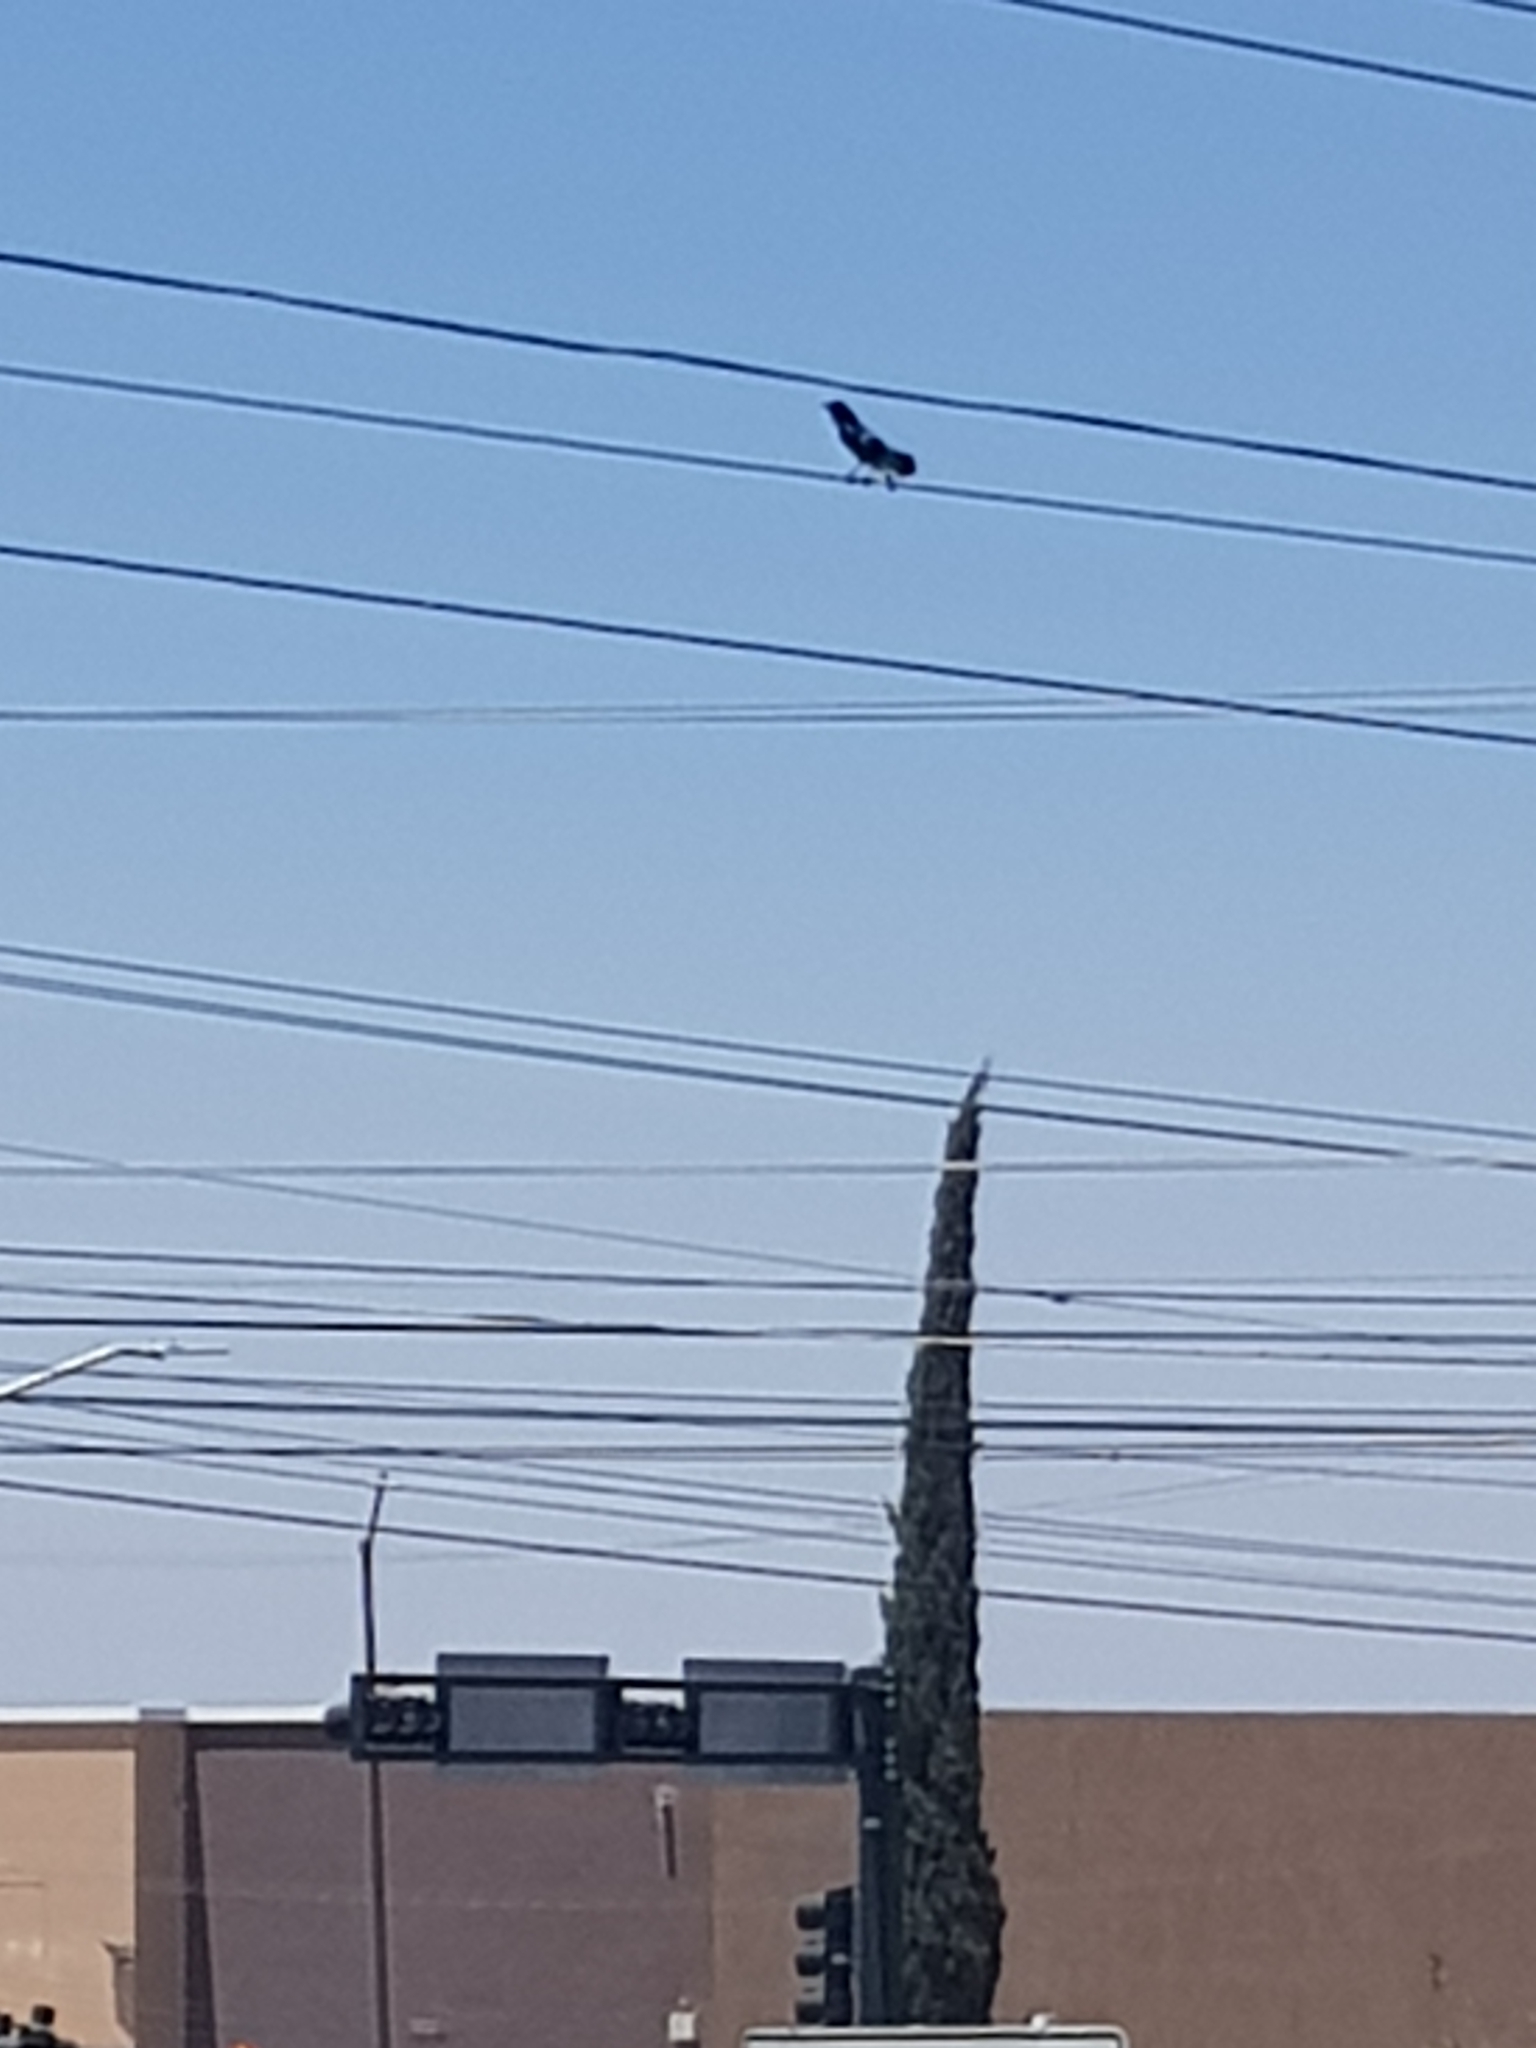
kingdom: Plantae
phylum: Tracheophyta
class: Magnoliopsida
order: Malpighiales
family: Euphorbiaceae
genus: Ricinus
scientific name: Ricinus communis
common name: Castor-oil-plant
